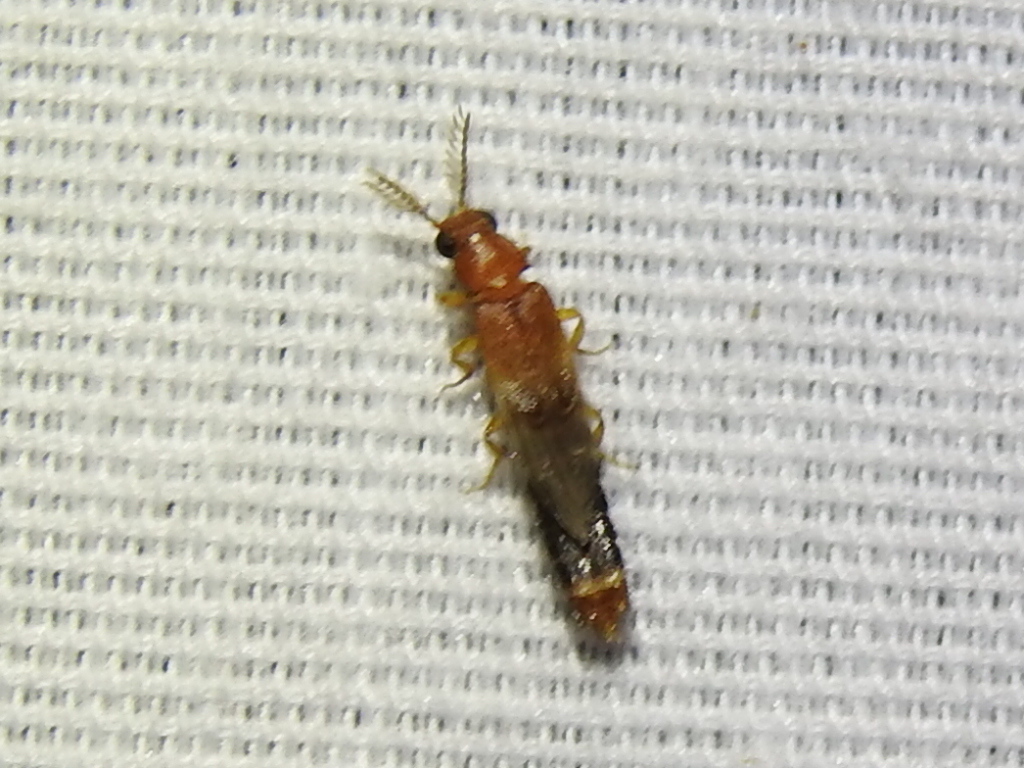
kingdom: Animalia
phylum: Arthropoda
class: Insecta
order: Coleoptera
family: Phengodidae
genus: Distremocephalus
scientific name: Distremocephalus texanus
